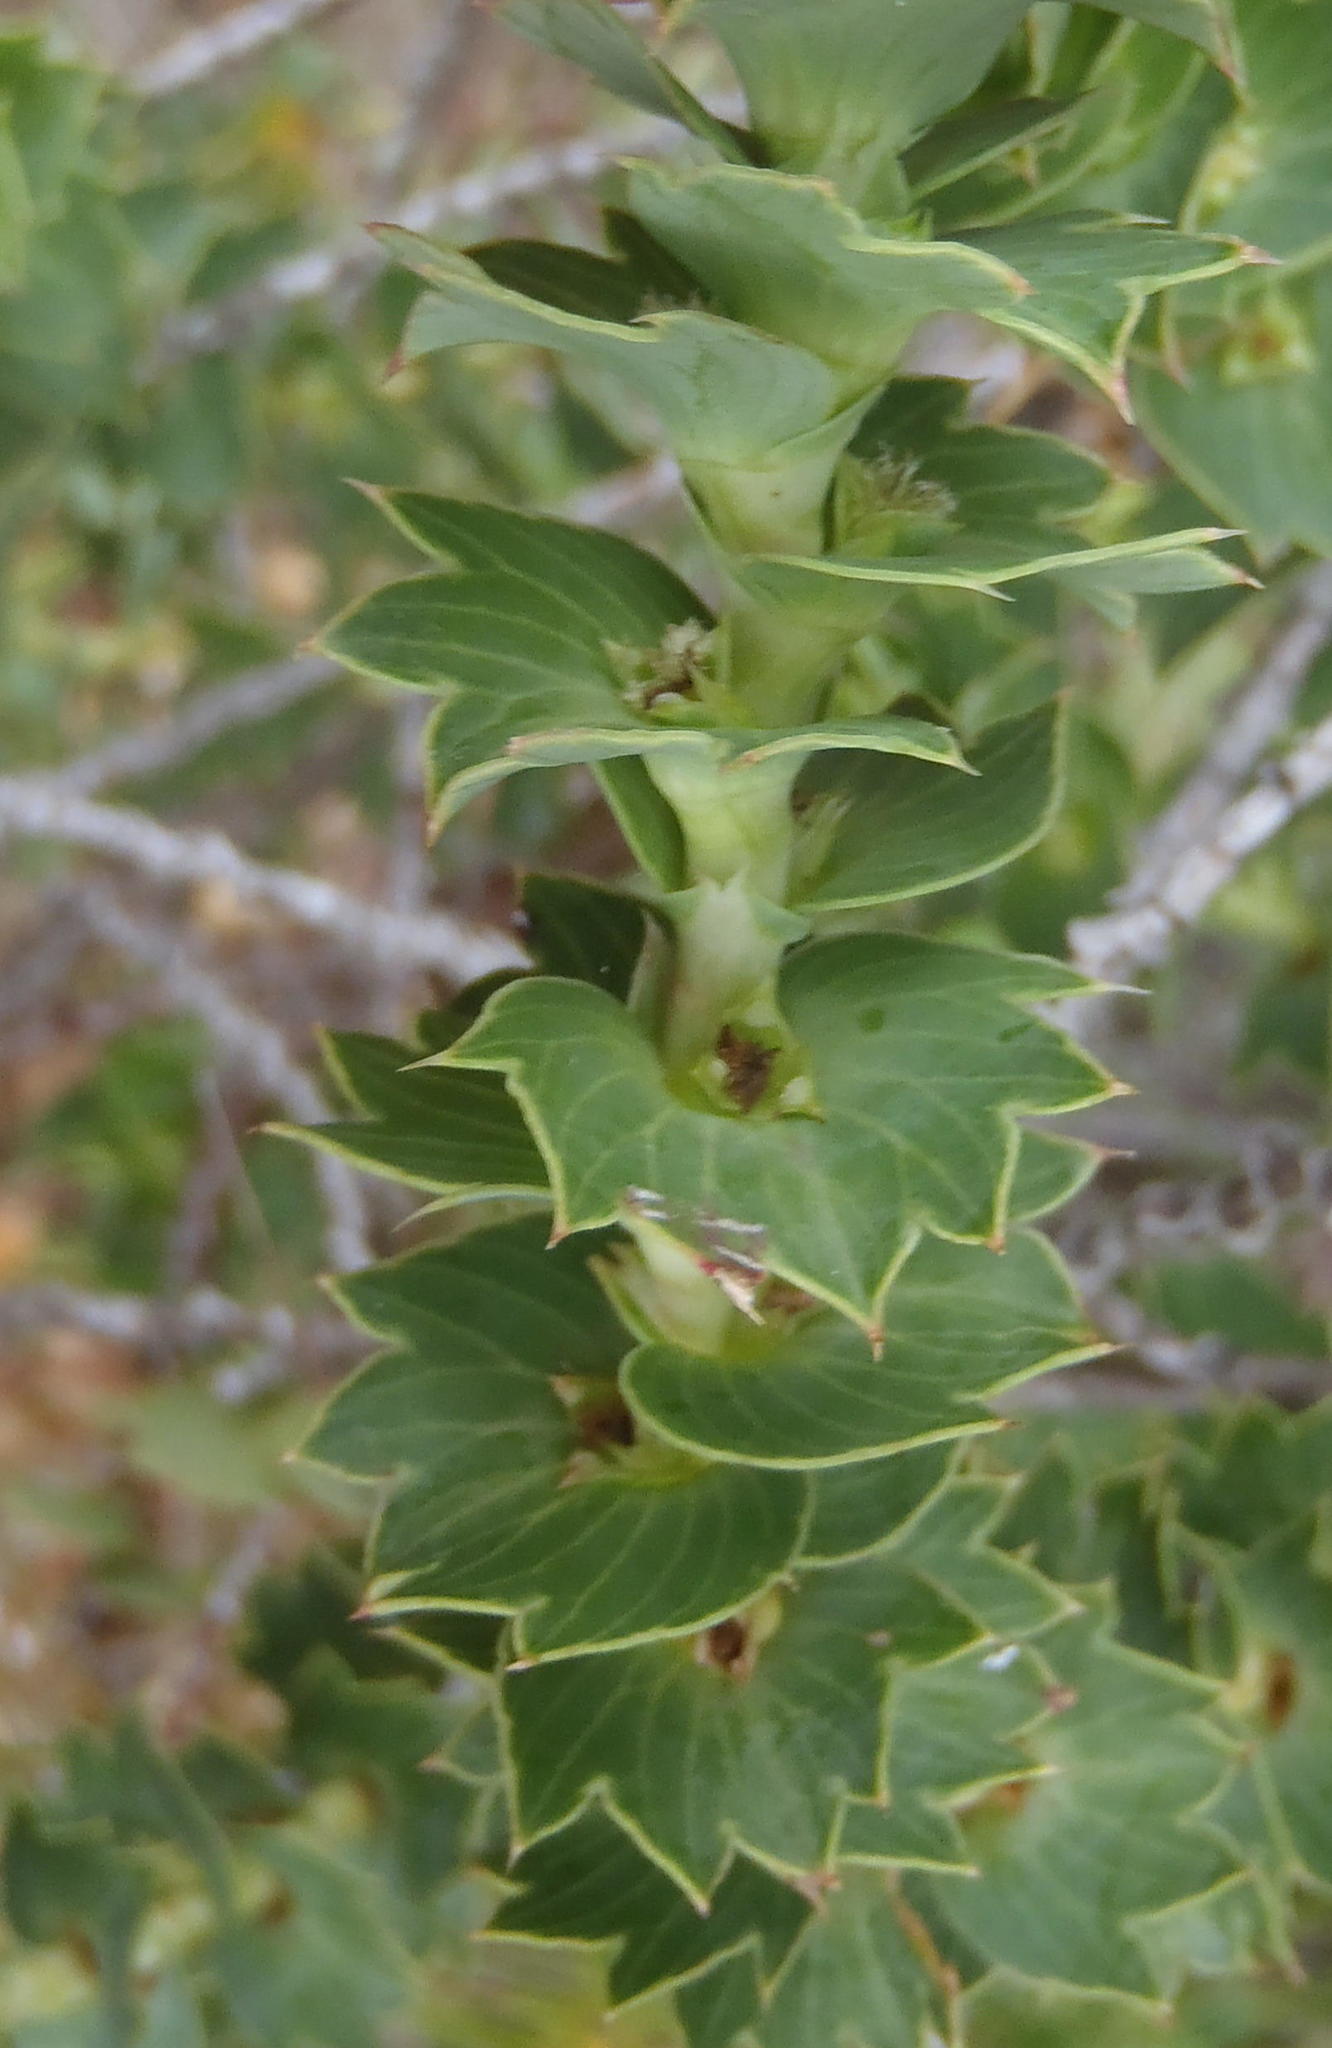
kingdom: Plantae
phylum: Tracheophyta
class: Magnoliopsida
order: Rosales
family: Rosaceae
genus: Cliffortia
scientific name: Cliffortia ilicifolia
